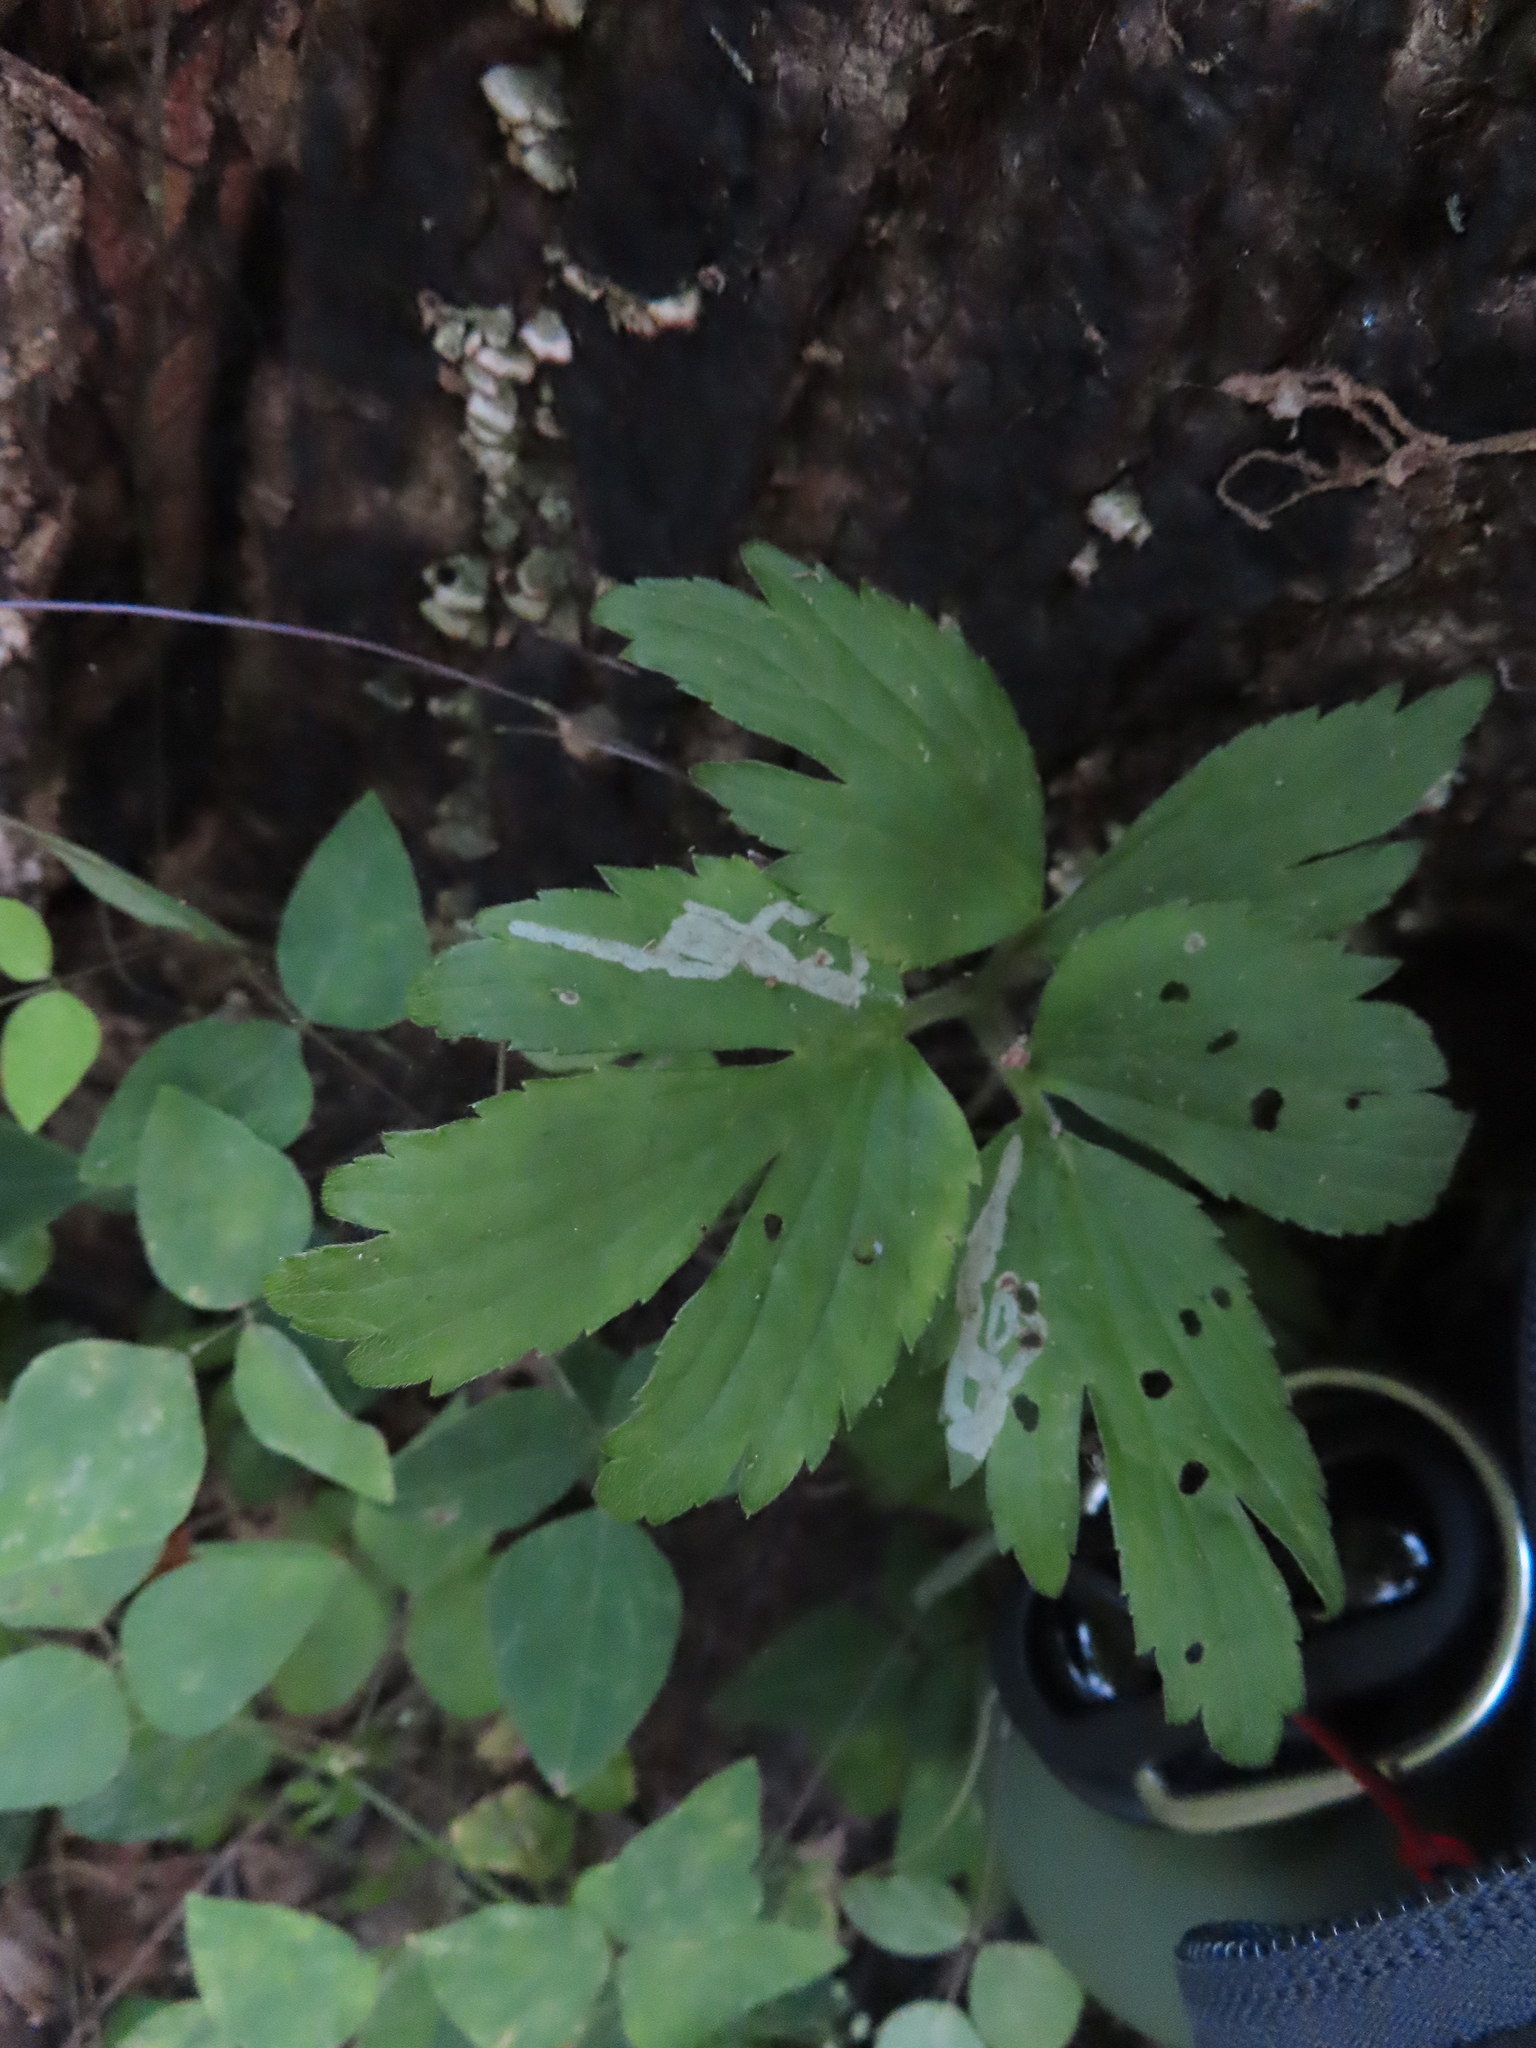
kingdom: Animalia
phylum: Arthropoda
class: Insecta
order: Diptera
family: Agromyzidae
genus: Phytomyza
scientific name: Phytomyza loewii
